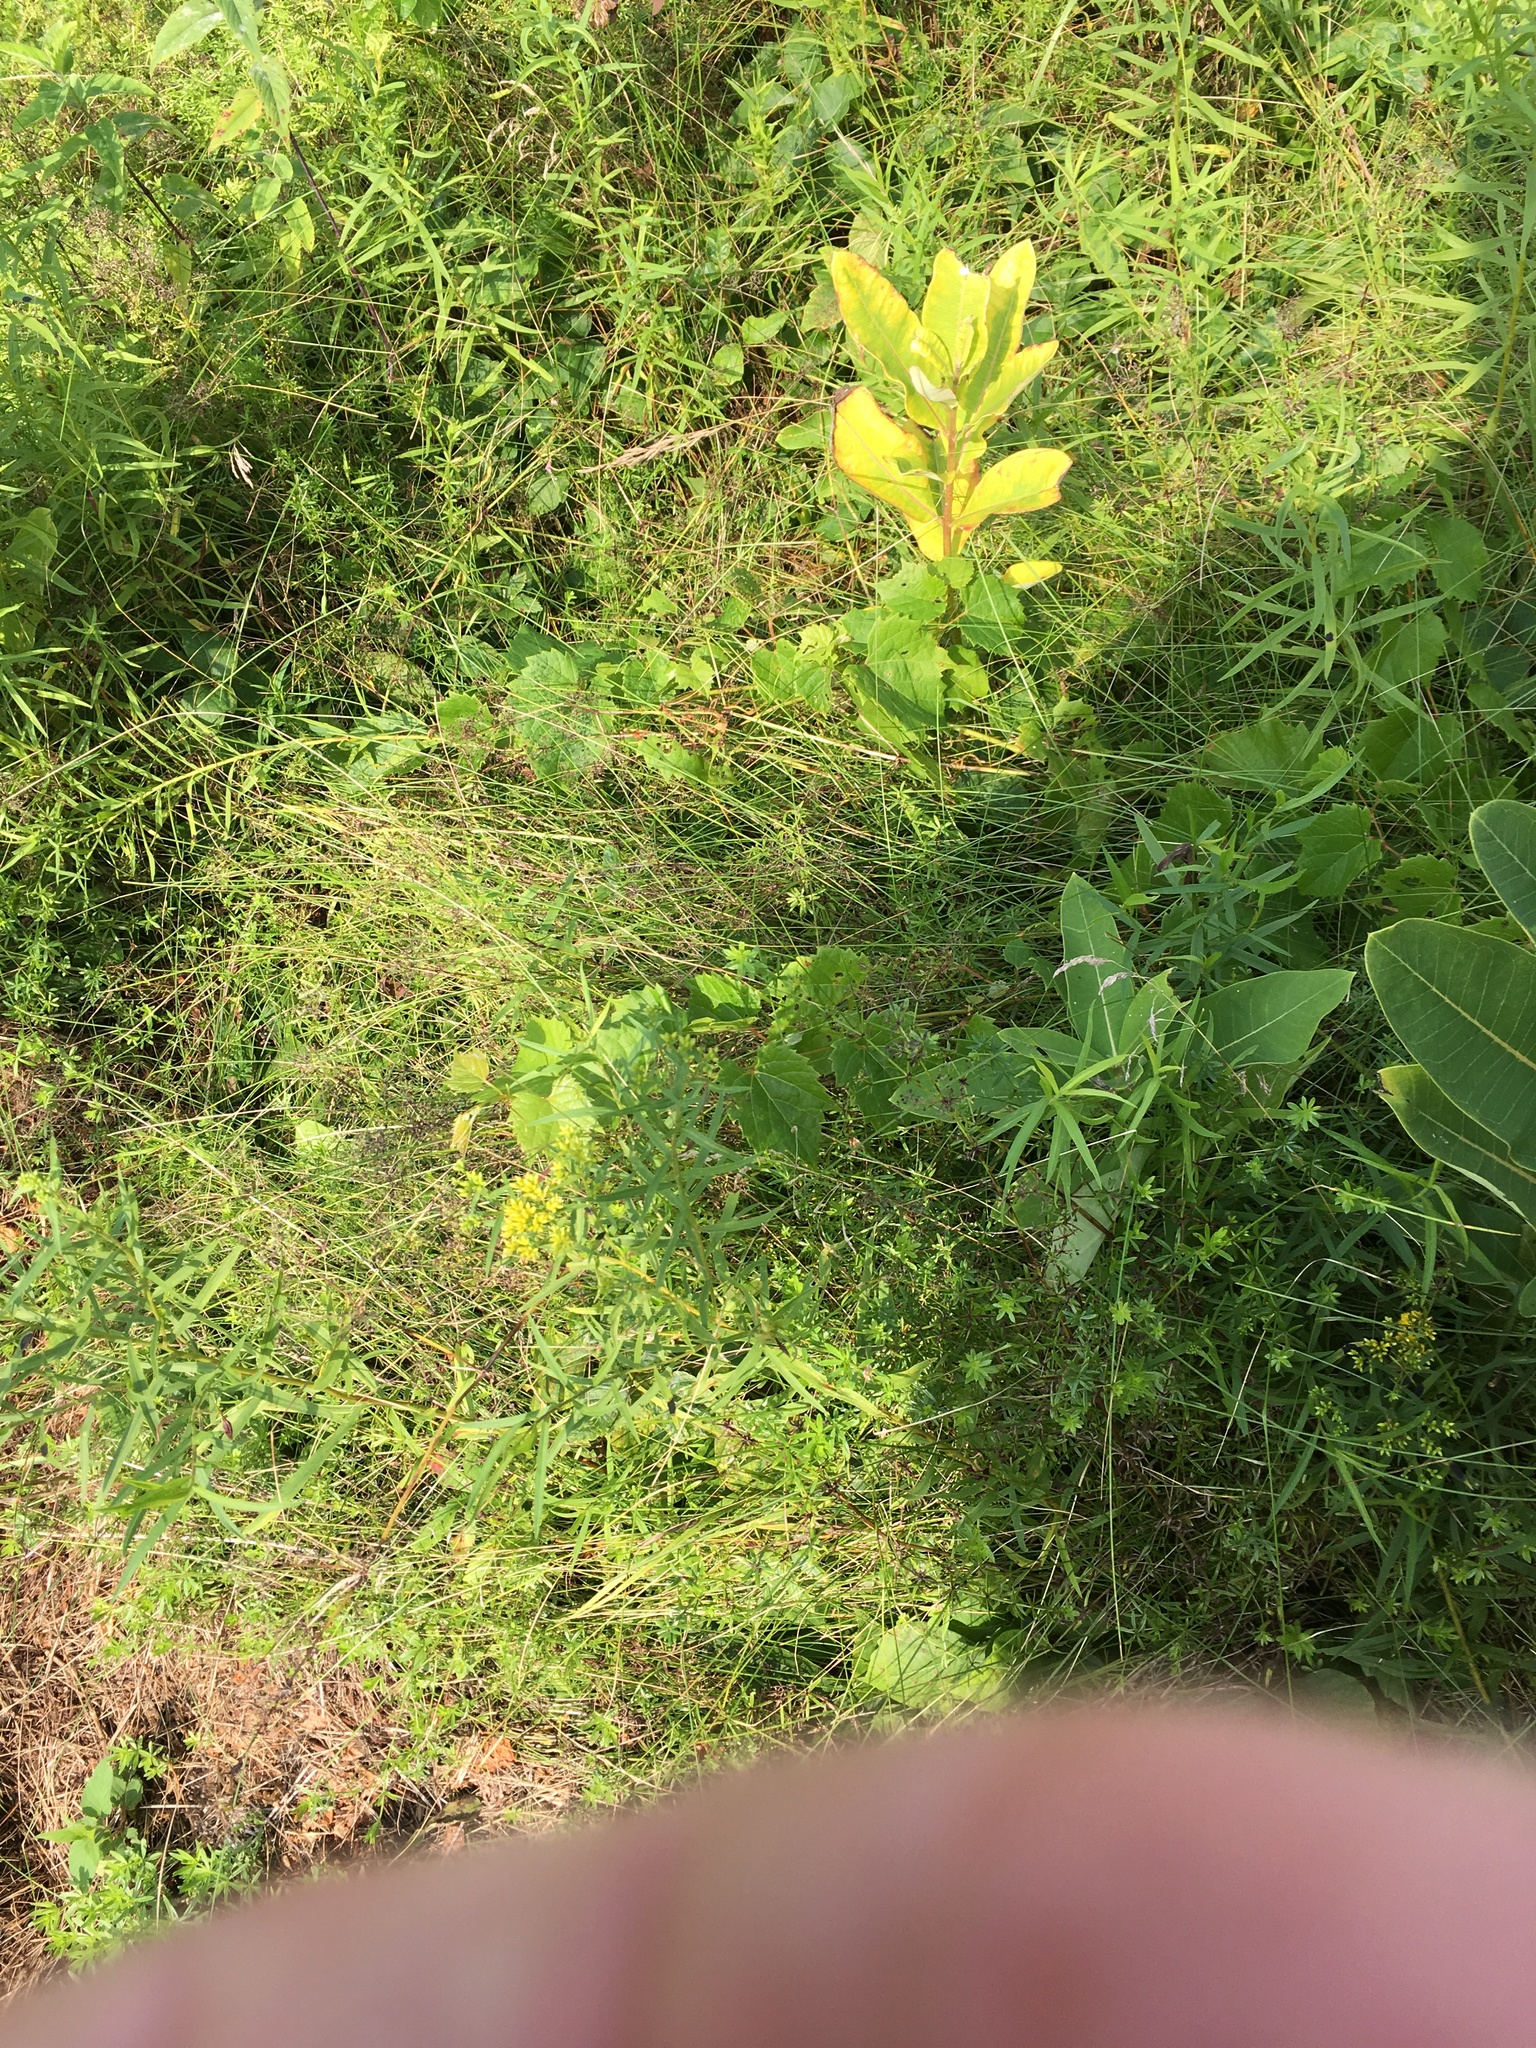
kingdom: Plantae
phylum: Tracheophyta
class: Magnoliopsida
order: Gentianales
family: Apocynaceae
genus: Asclepias
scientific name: Asclepias syriaca
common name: Common milkweed
